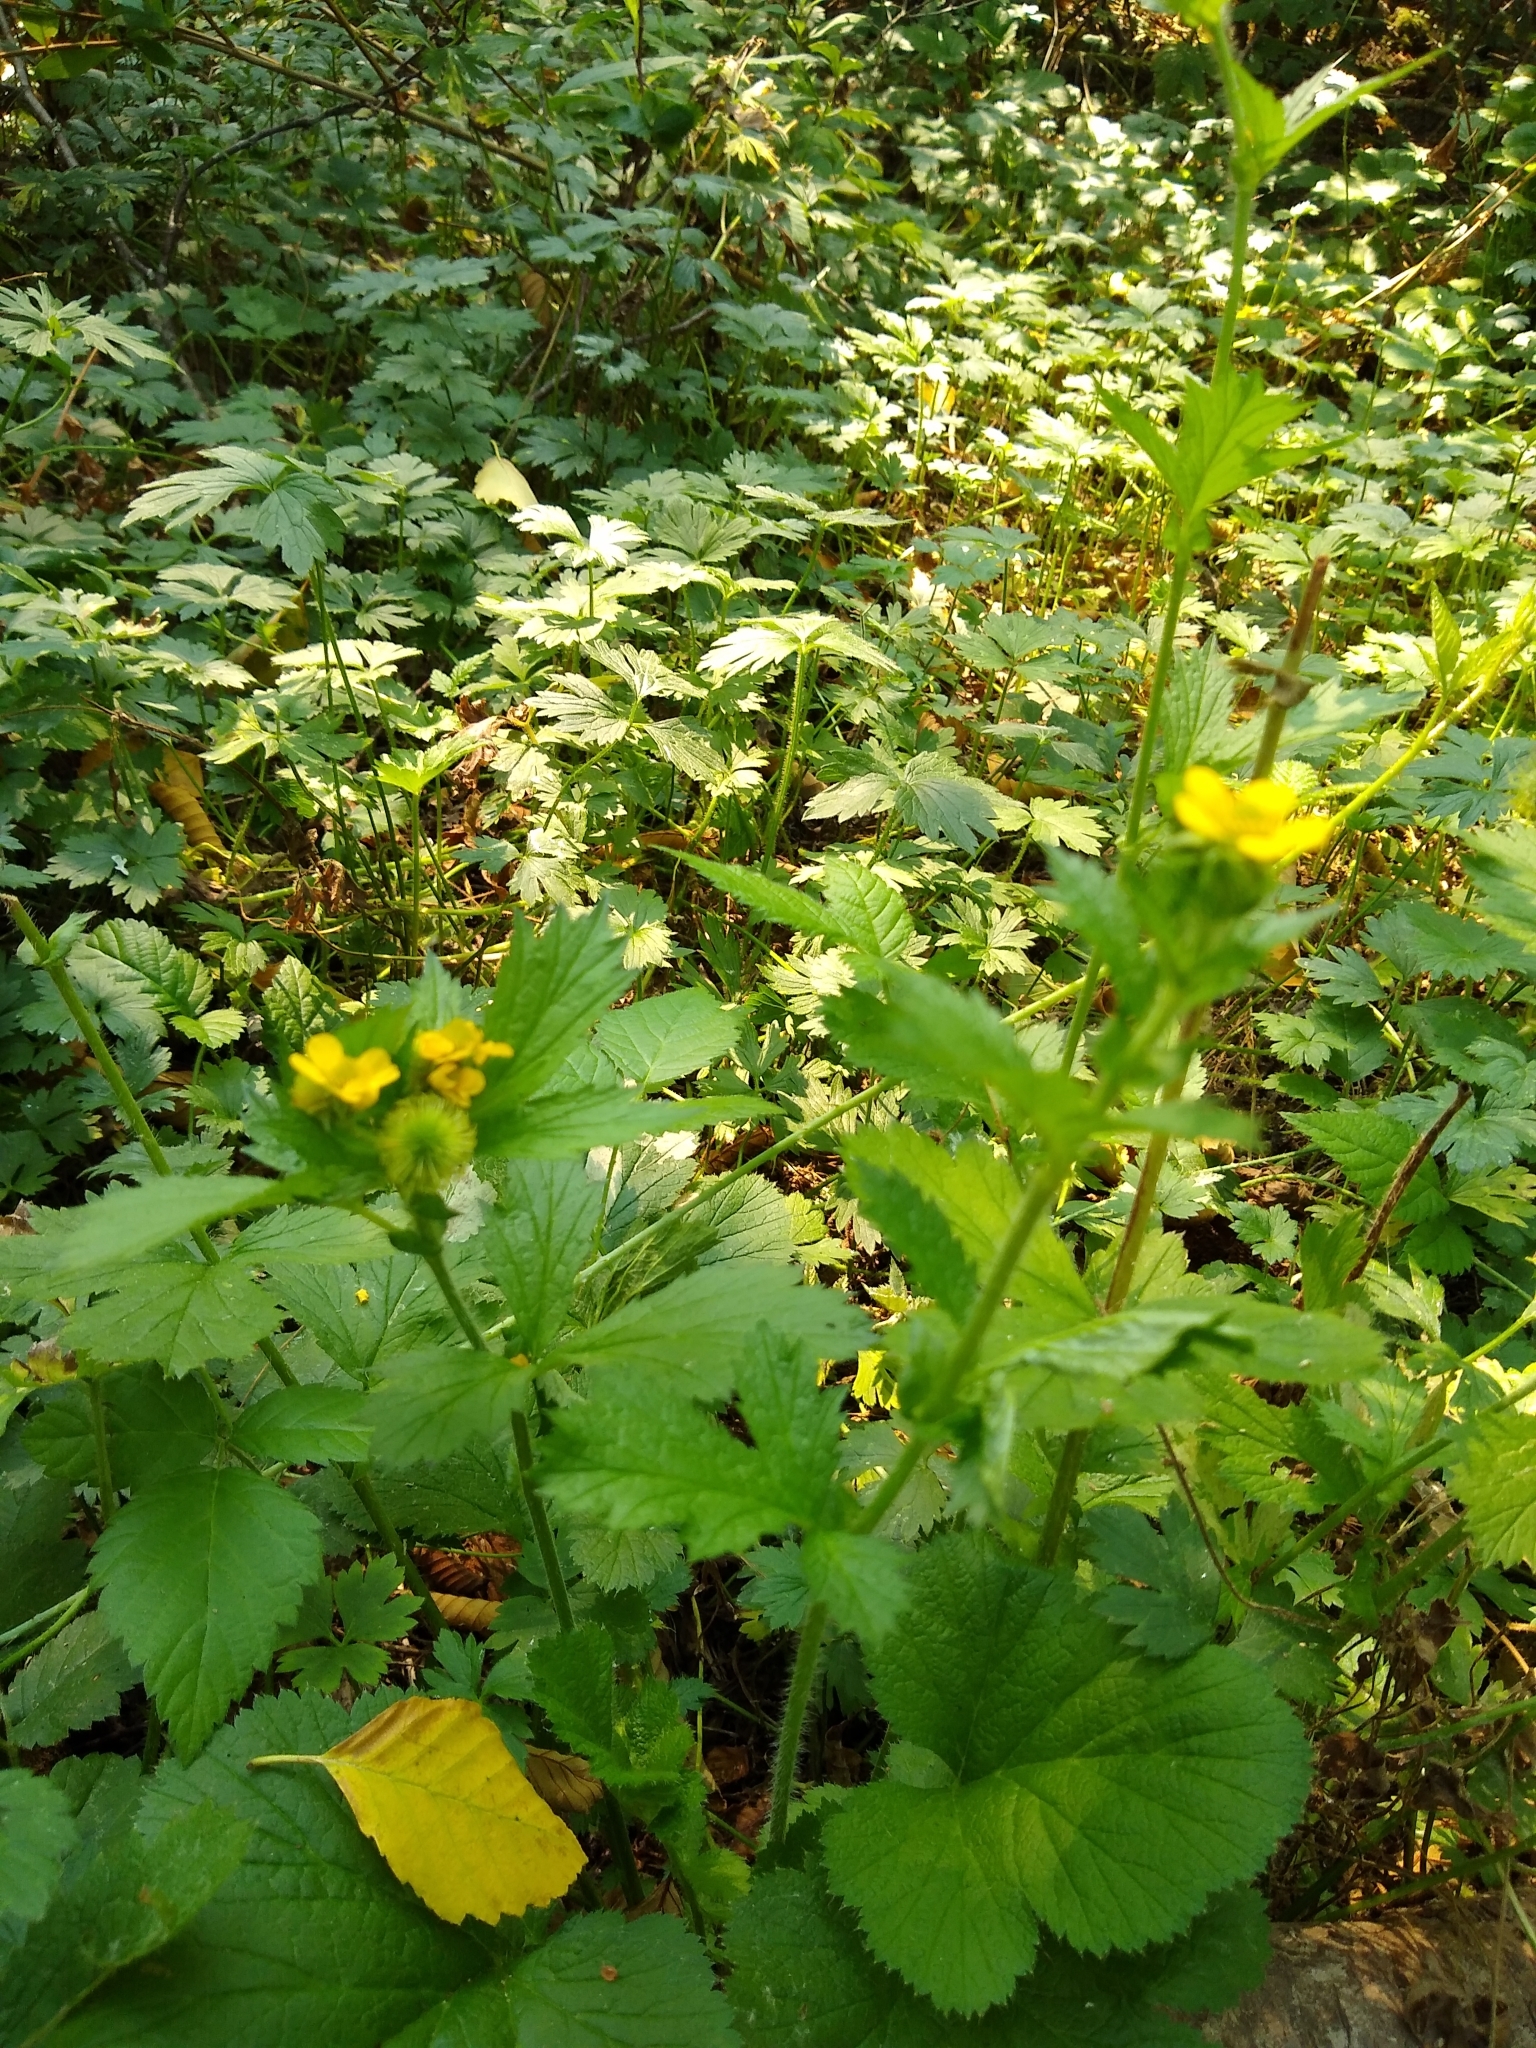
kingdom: Plantae
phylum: Tracheophyta
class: Magnoliopsida
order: Rosales
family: Rosaceae
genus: Geum
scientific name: Geum macrophyllum
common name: Large-leaved avens
